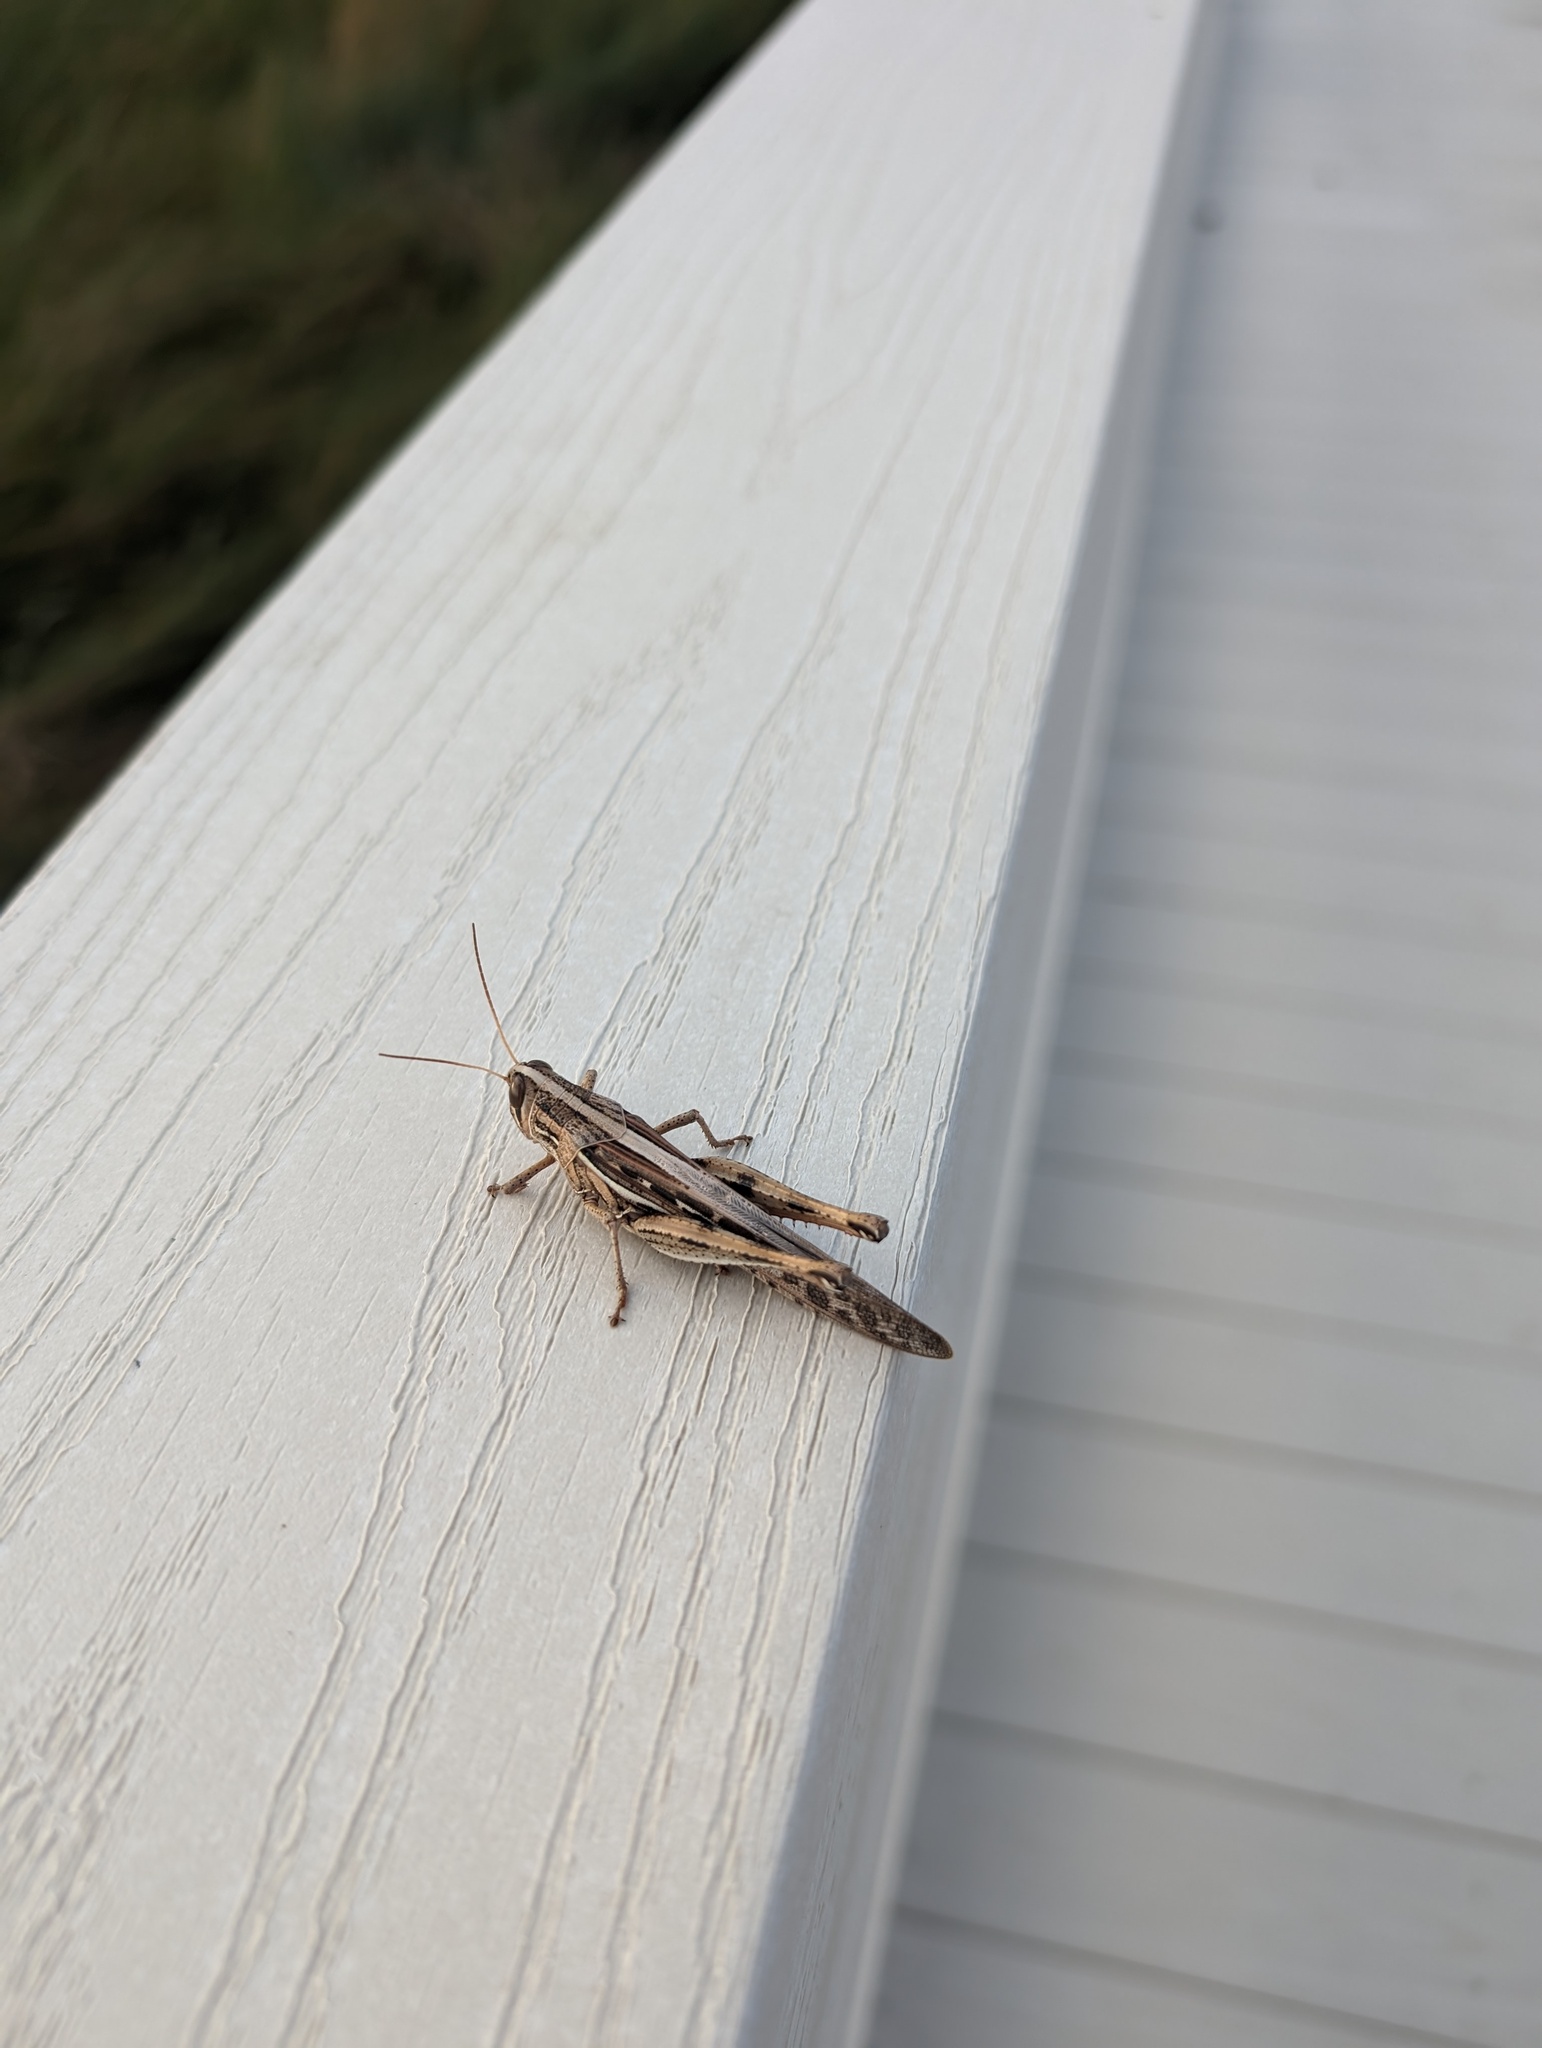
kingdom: Animalia
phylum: Arthropoda
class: Insecta
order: Orthoptera
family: Acrididae
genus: Schistocerca
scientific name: Schistocerca serialis
